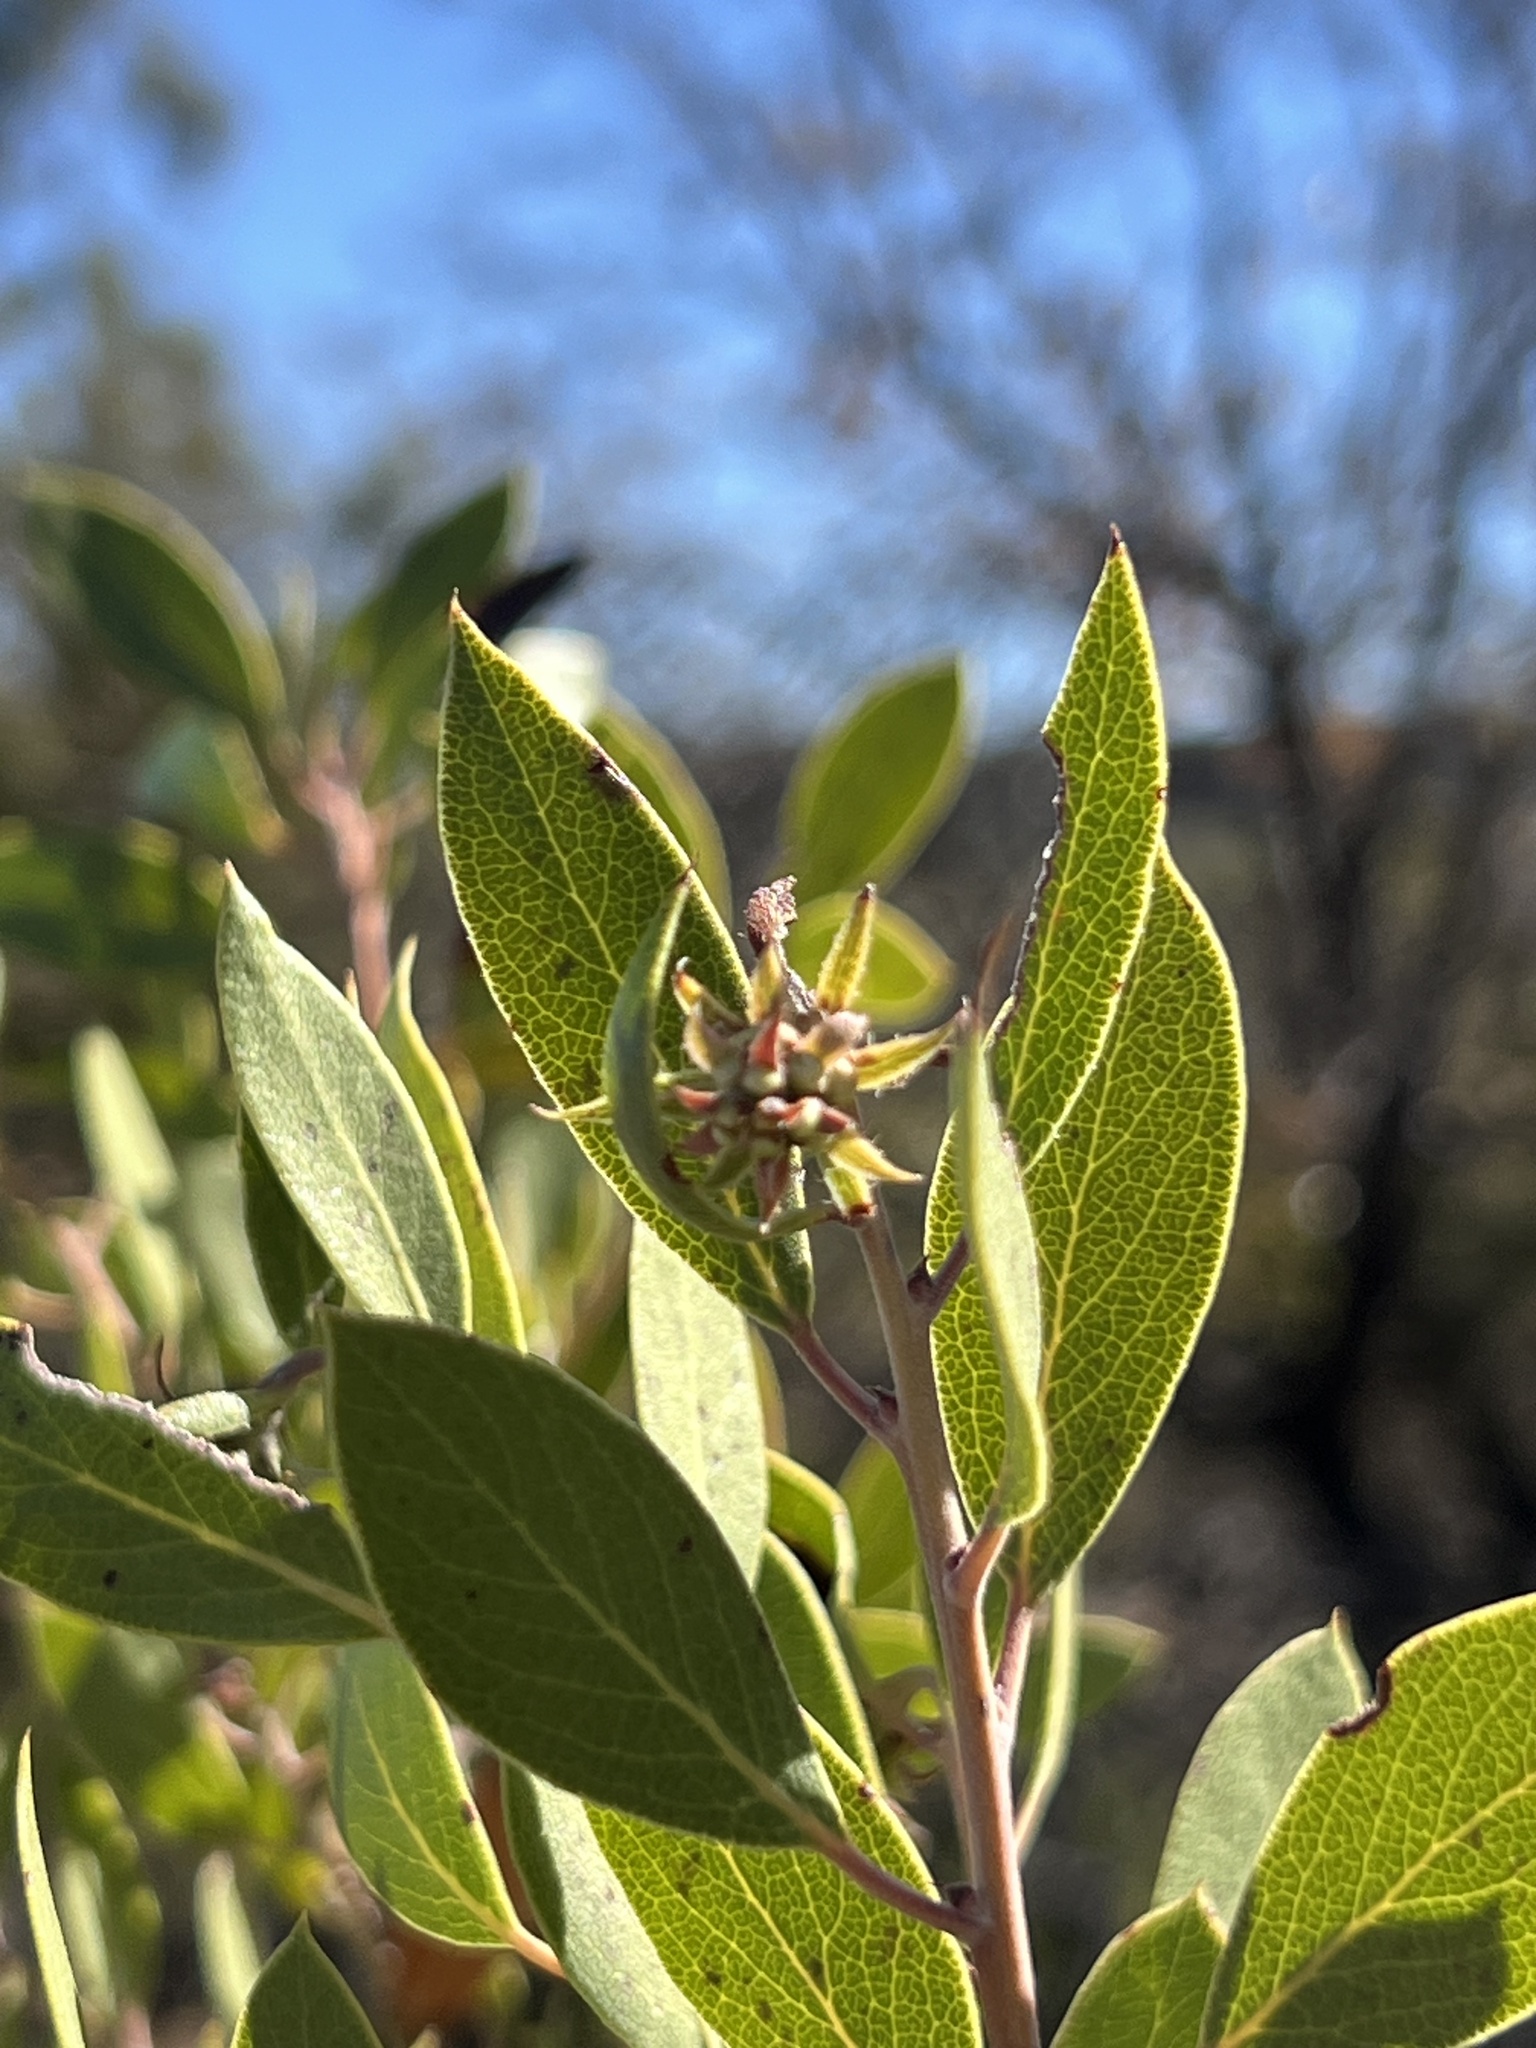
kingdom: Plantae
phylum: Tracheophyta
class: Magnoliopsida
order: Ericales
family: Ericaceae
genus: Arctostaphylos
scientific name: Arctostaphylos pungens
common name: Mexican manzanita
